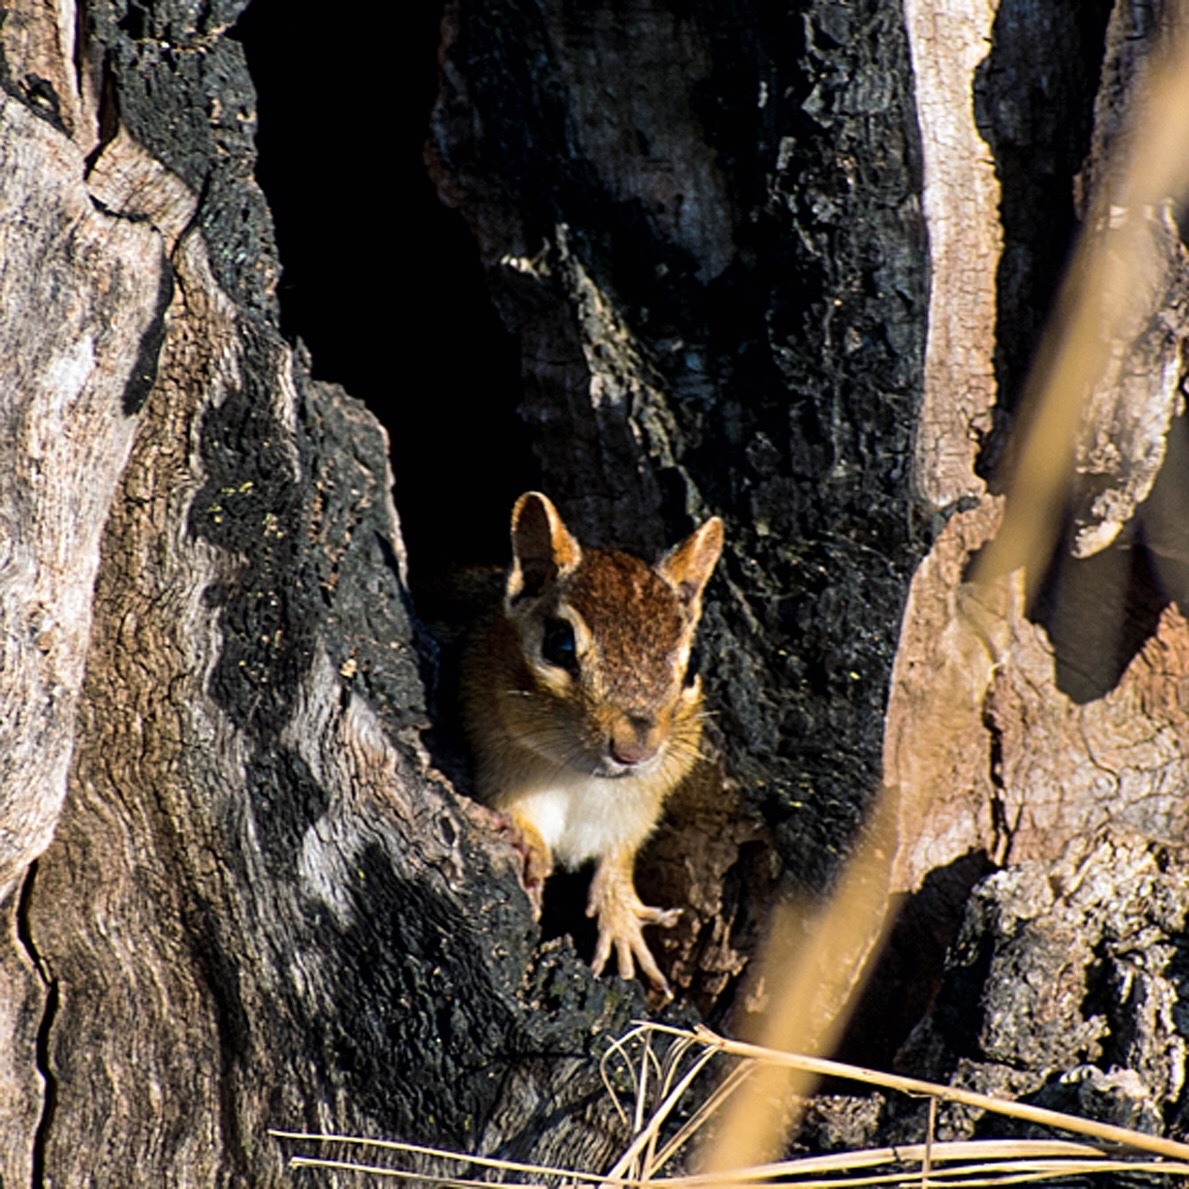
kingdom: Animalia
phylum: Chordata
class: Mammalia
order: Rodentia
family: Sciuridae
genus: Tamias
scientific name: Tamias striatus
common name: Eastern chipmunk
